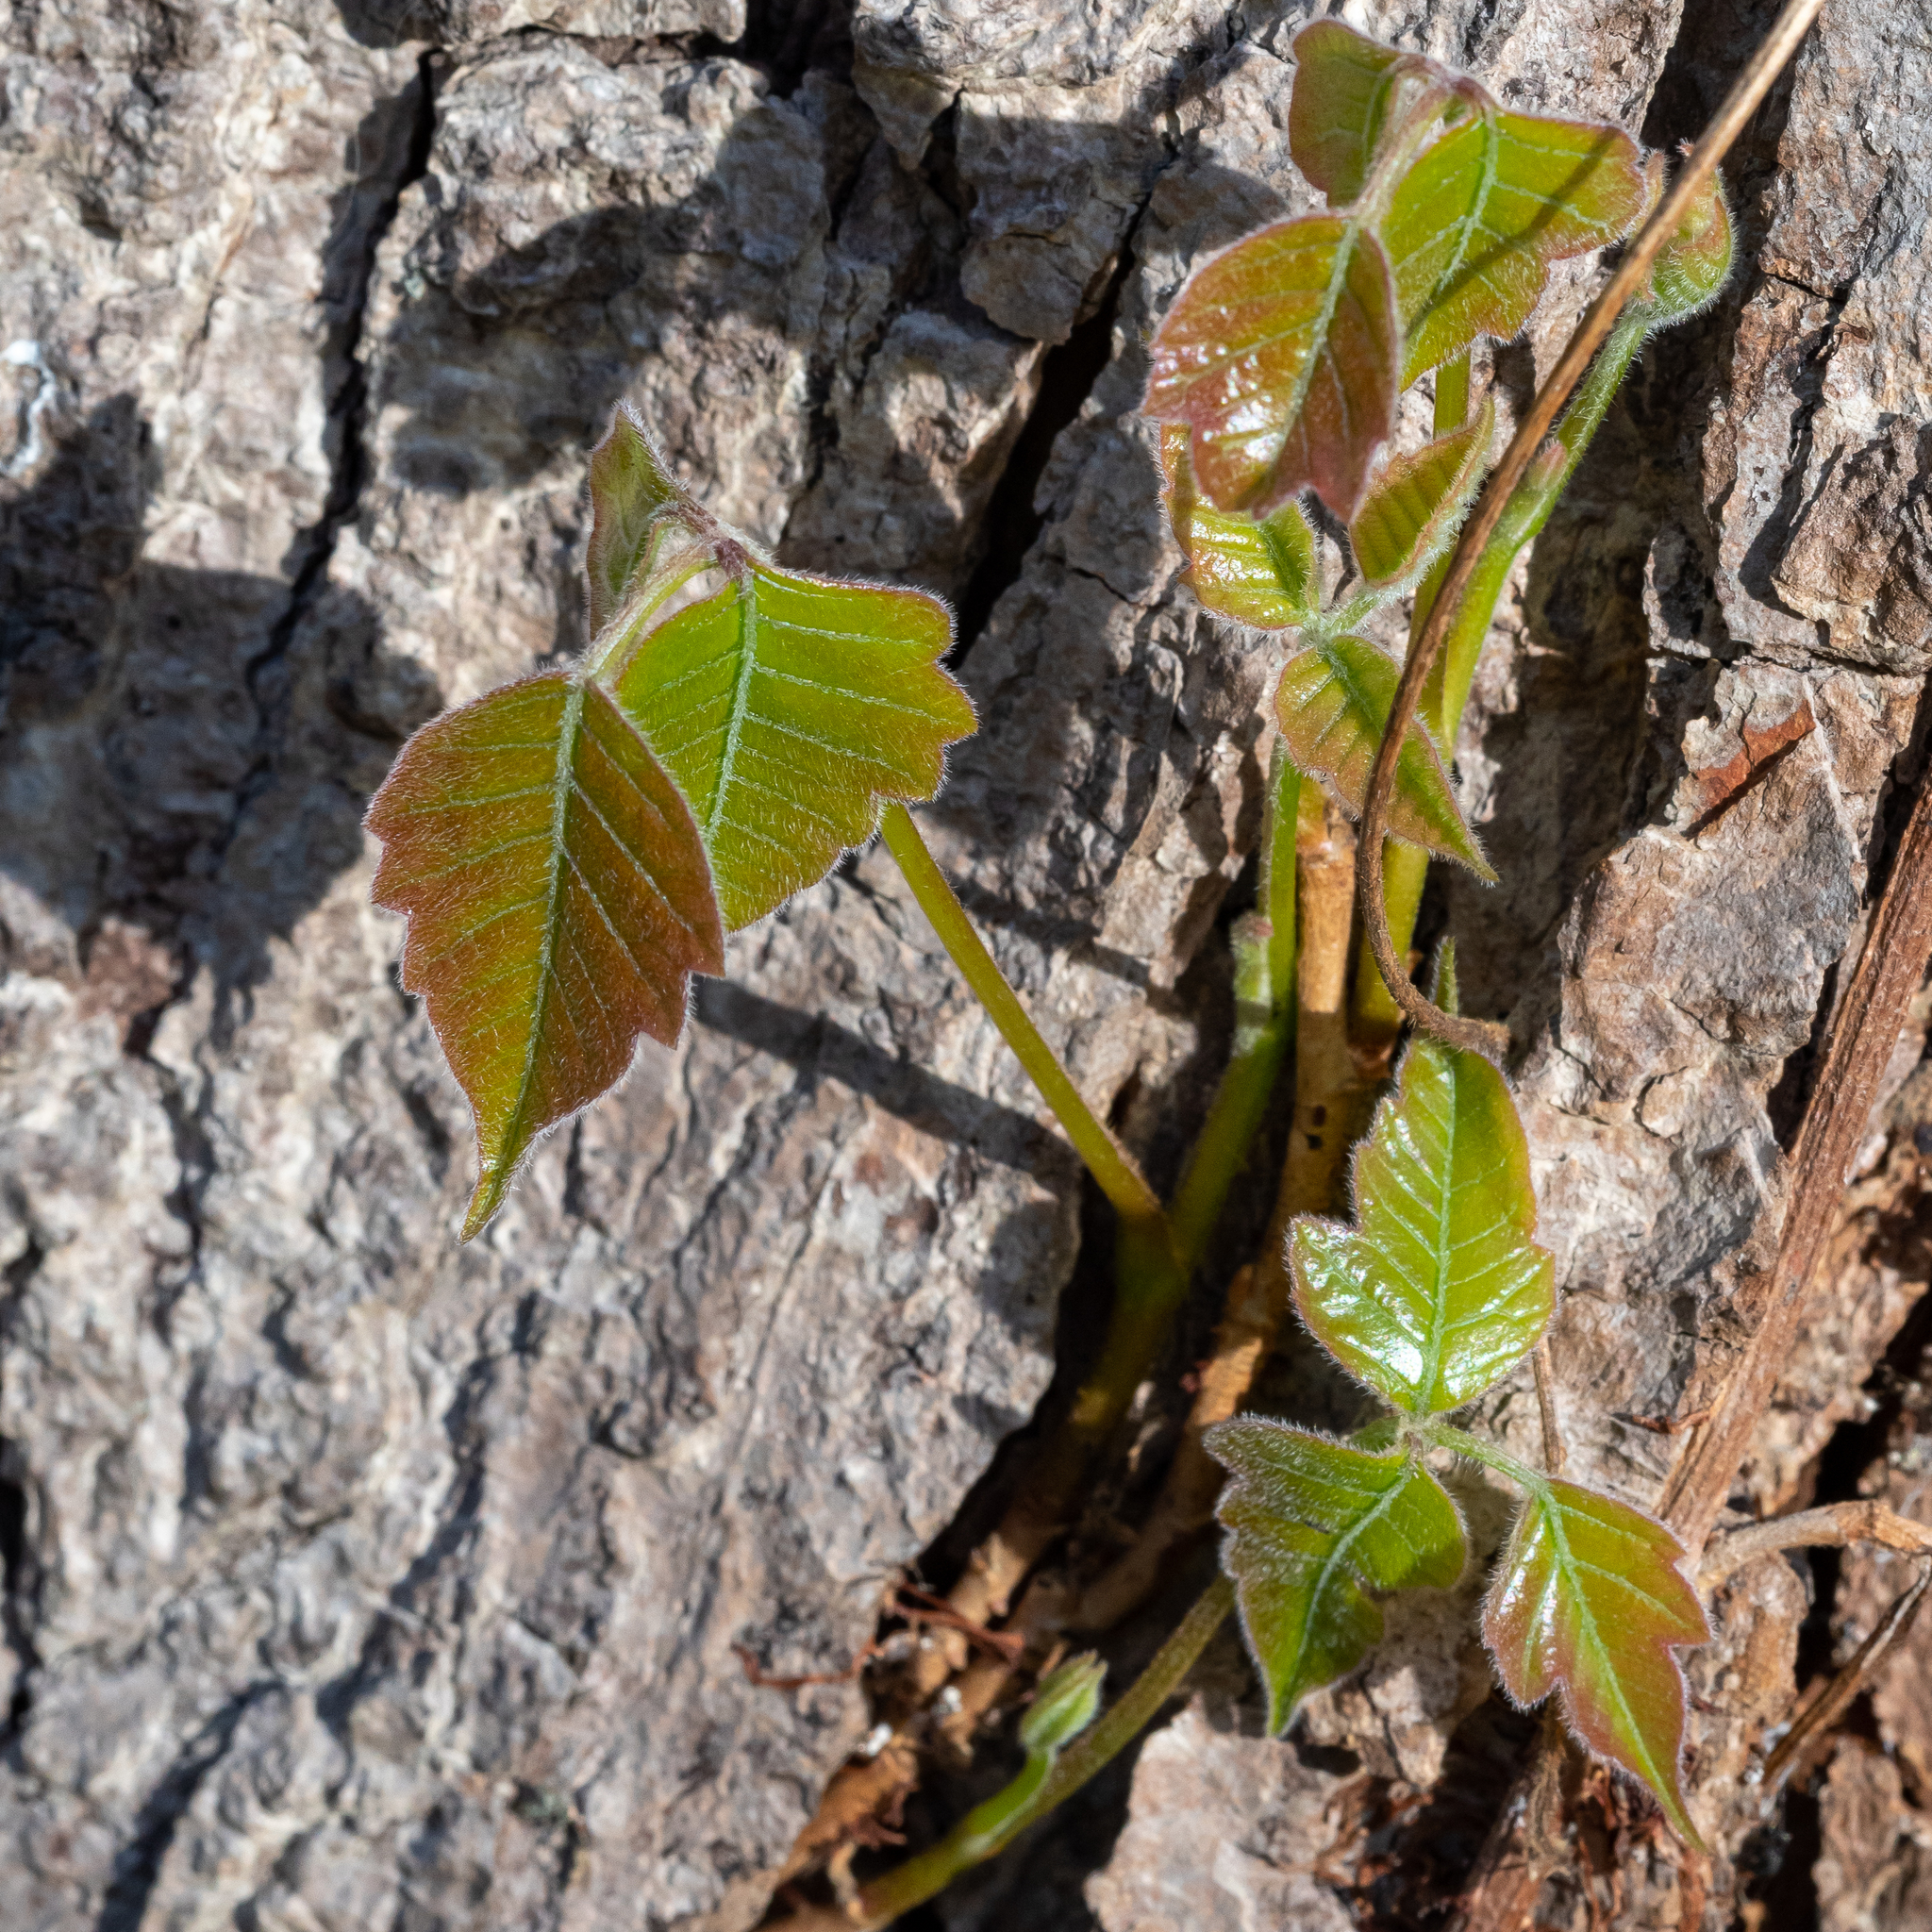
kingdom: Plantae
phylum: Tracheophyta
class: Magnoliopsida
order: Sapindales
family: Anacardiaceae
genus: Toxicodendron
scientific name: Toxicodendron radicans
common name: Poison ivy
